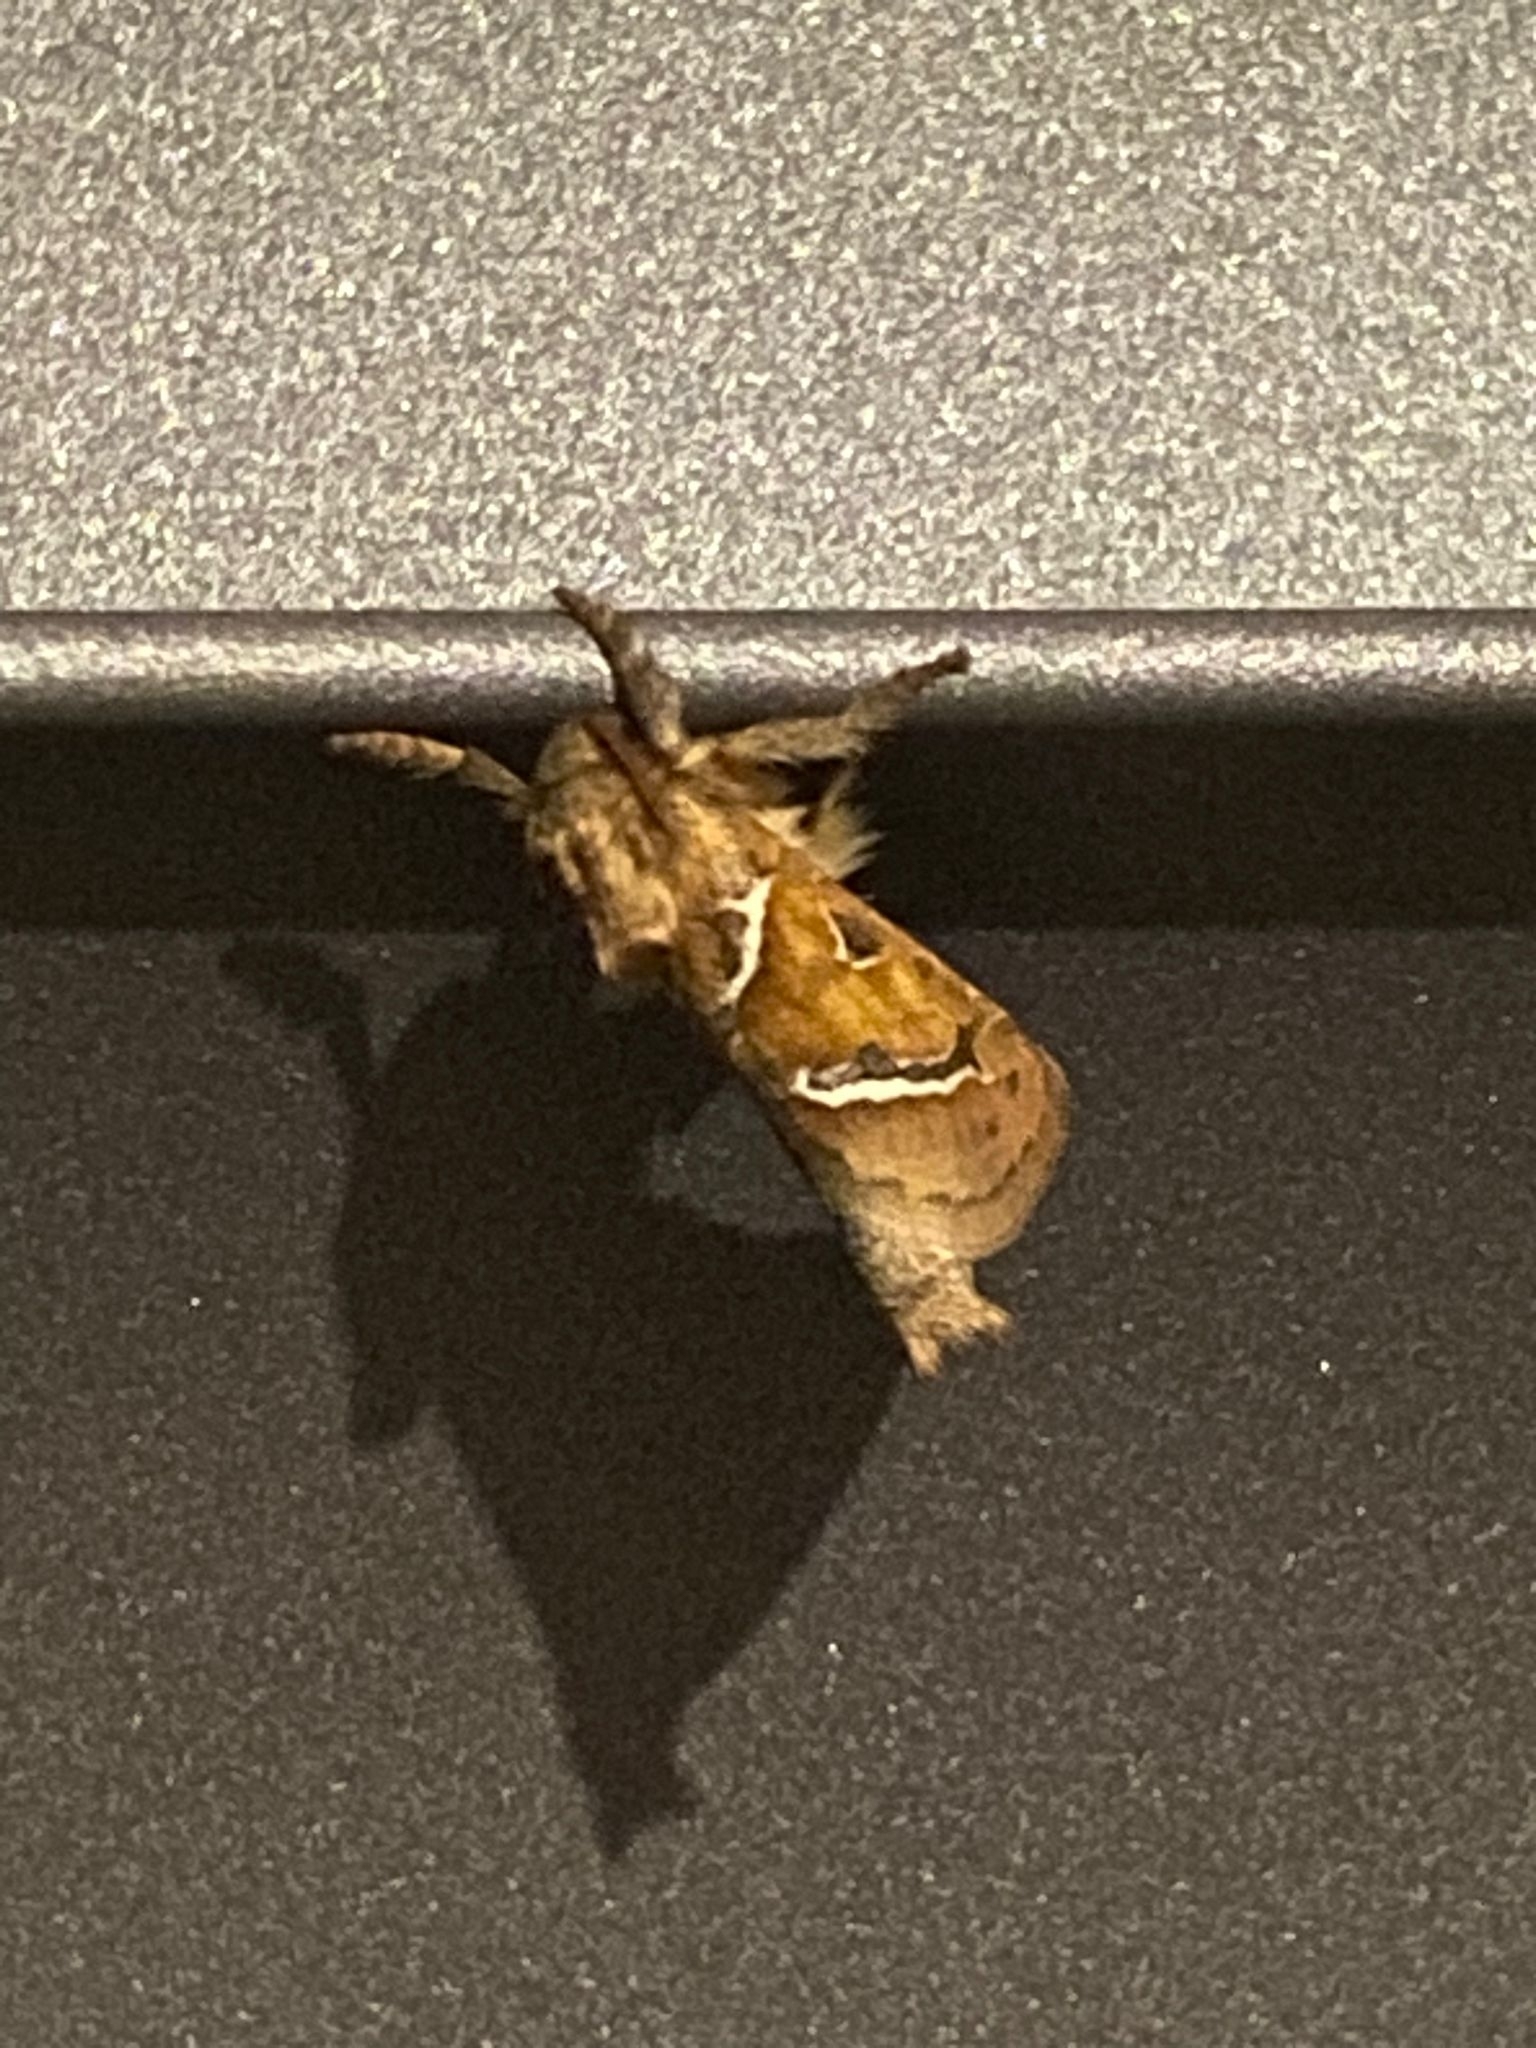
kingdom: Animalia
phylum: Arthropoda
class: Insecta
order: Lepidoptera
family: Hepialidae
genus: Triodia
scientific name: Triodia sylvina
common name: Orange swift
